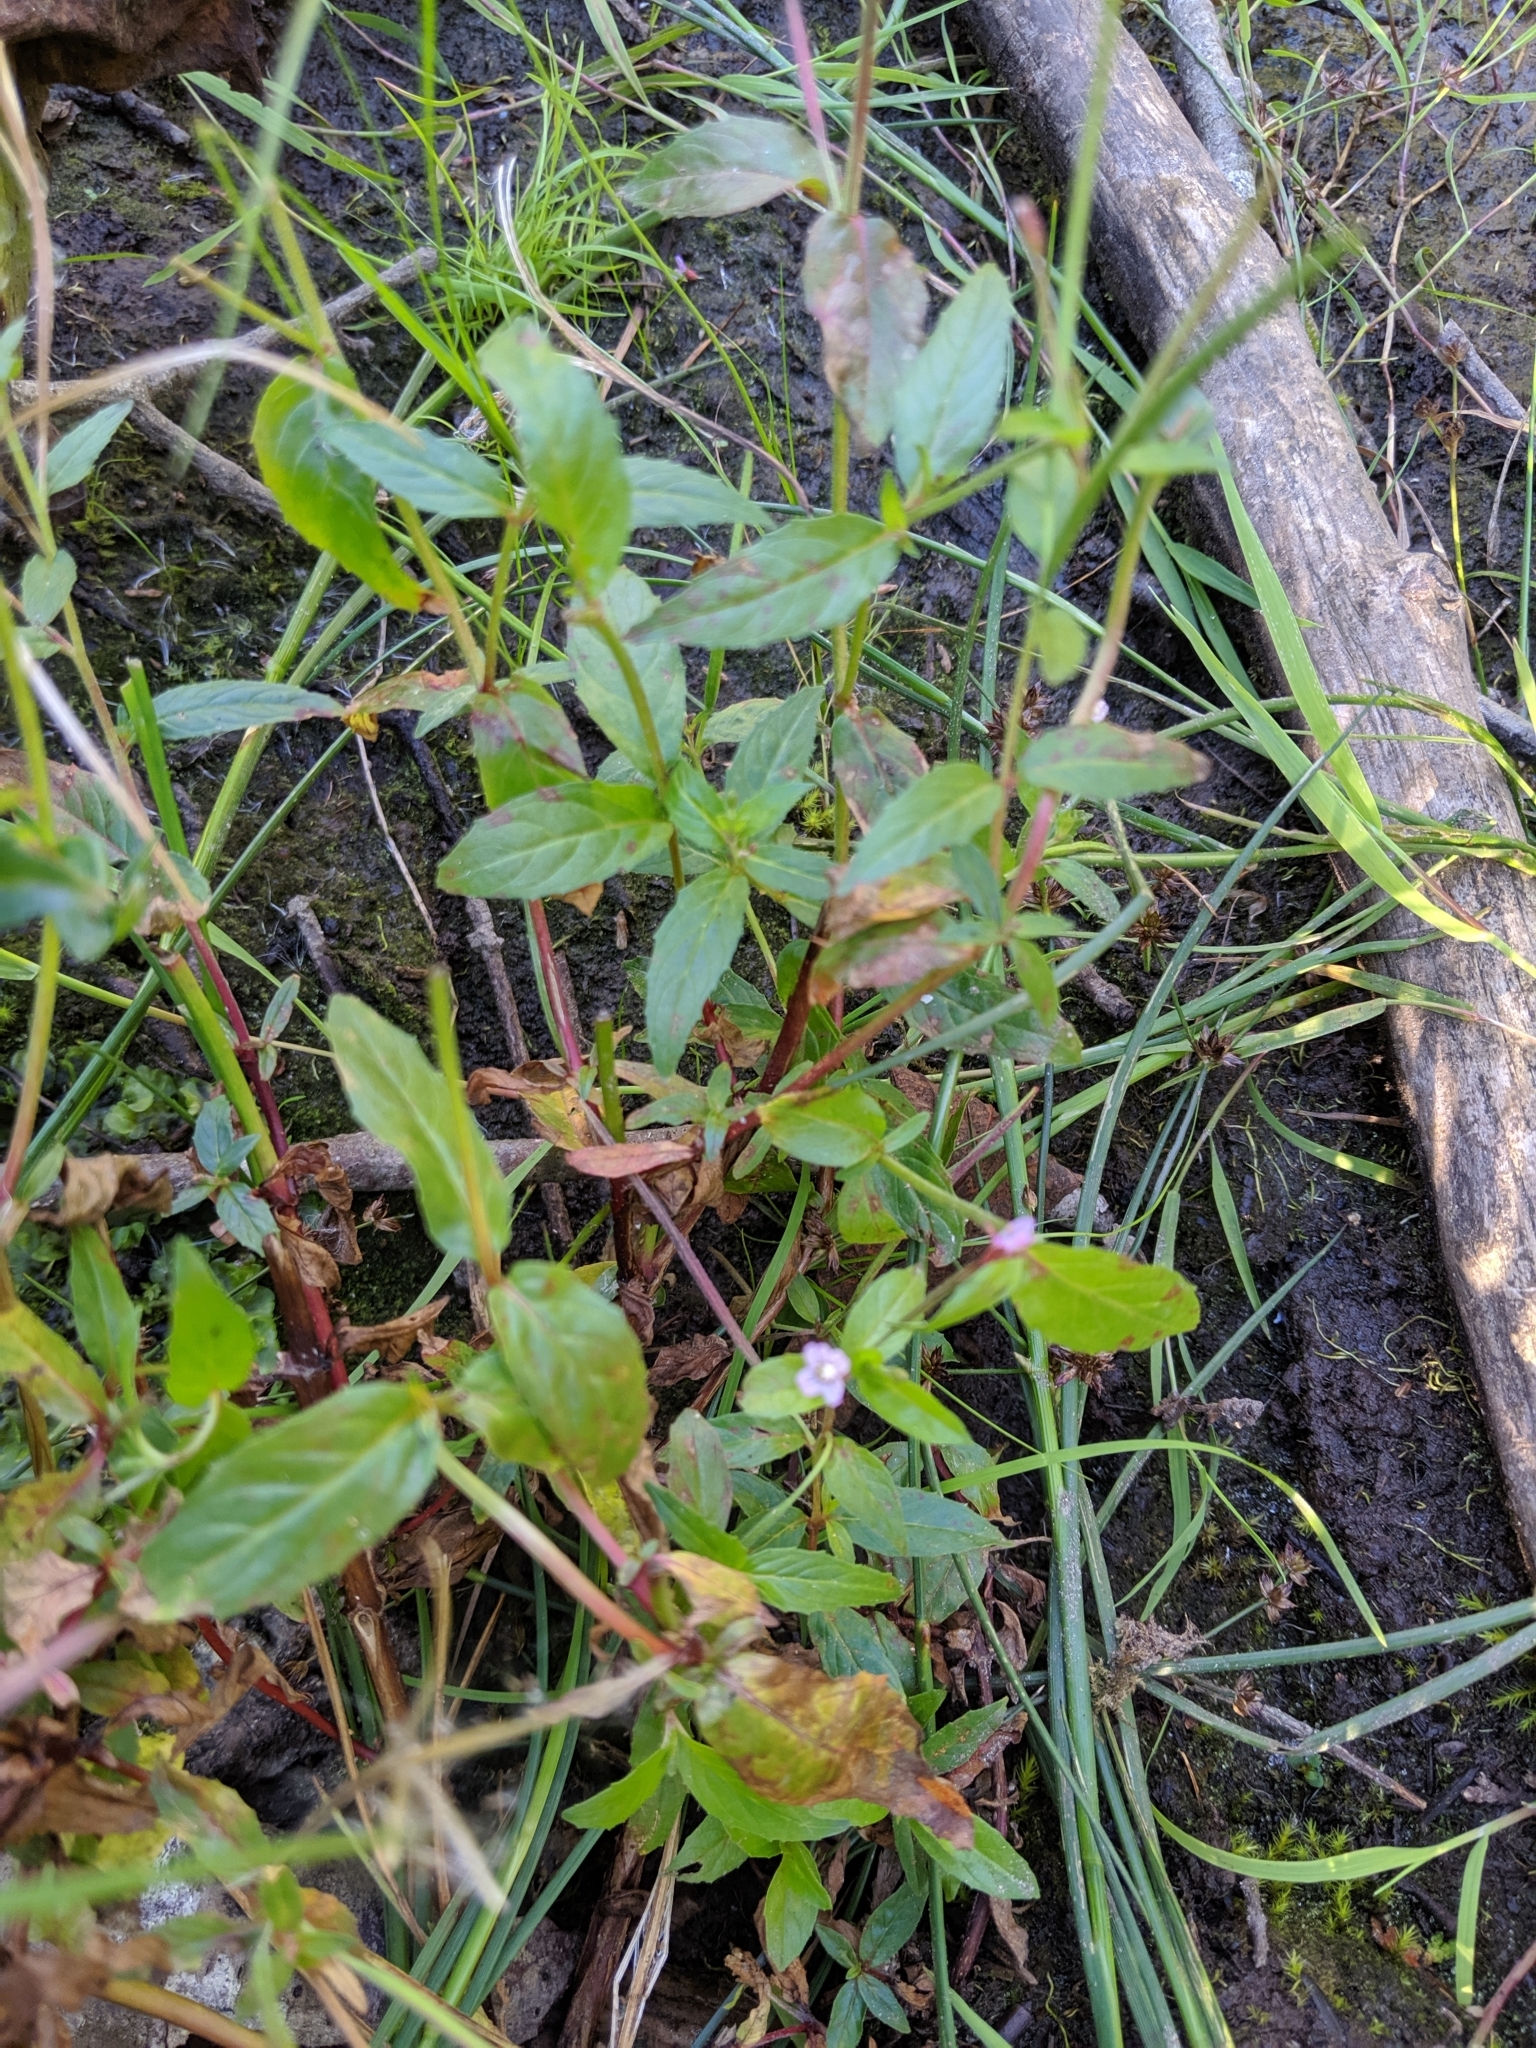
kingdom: Plantae
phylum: Tracheophyta
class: Magnoliopsida
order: Myrtales
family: Onagraceae
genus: Epilobium
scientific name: Epilobium ciliatum
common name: American willowherb
